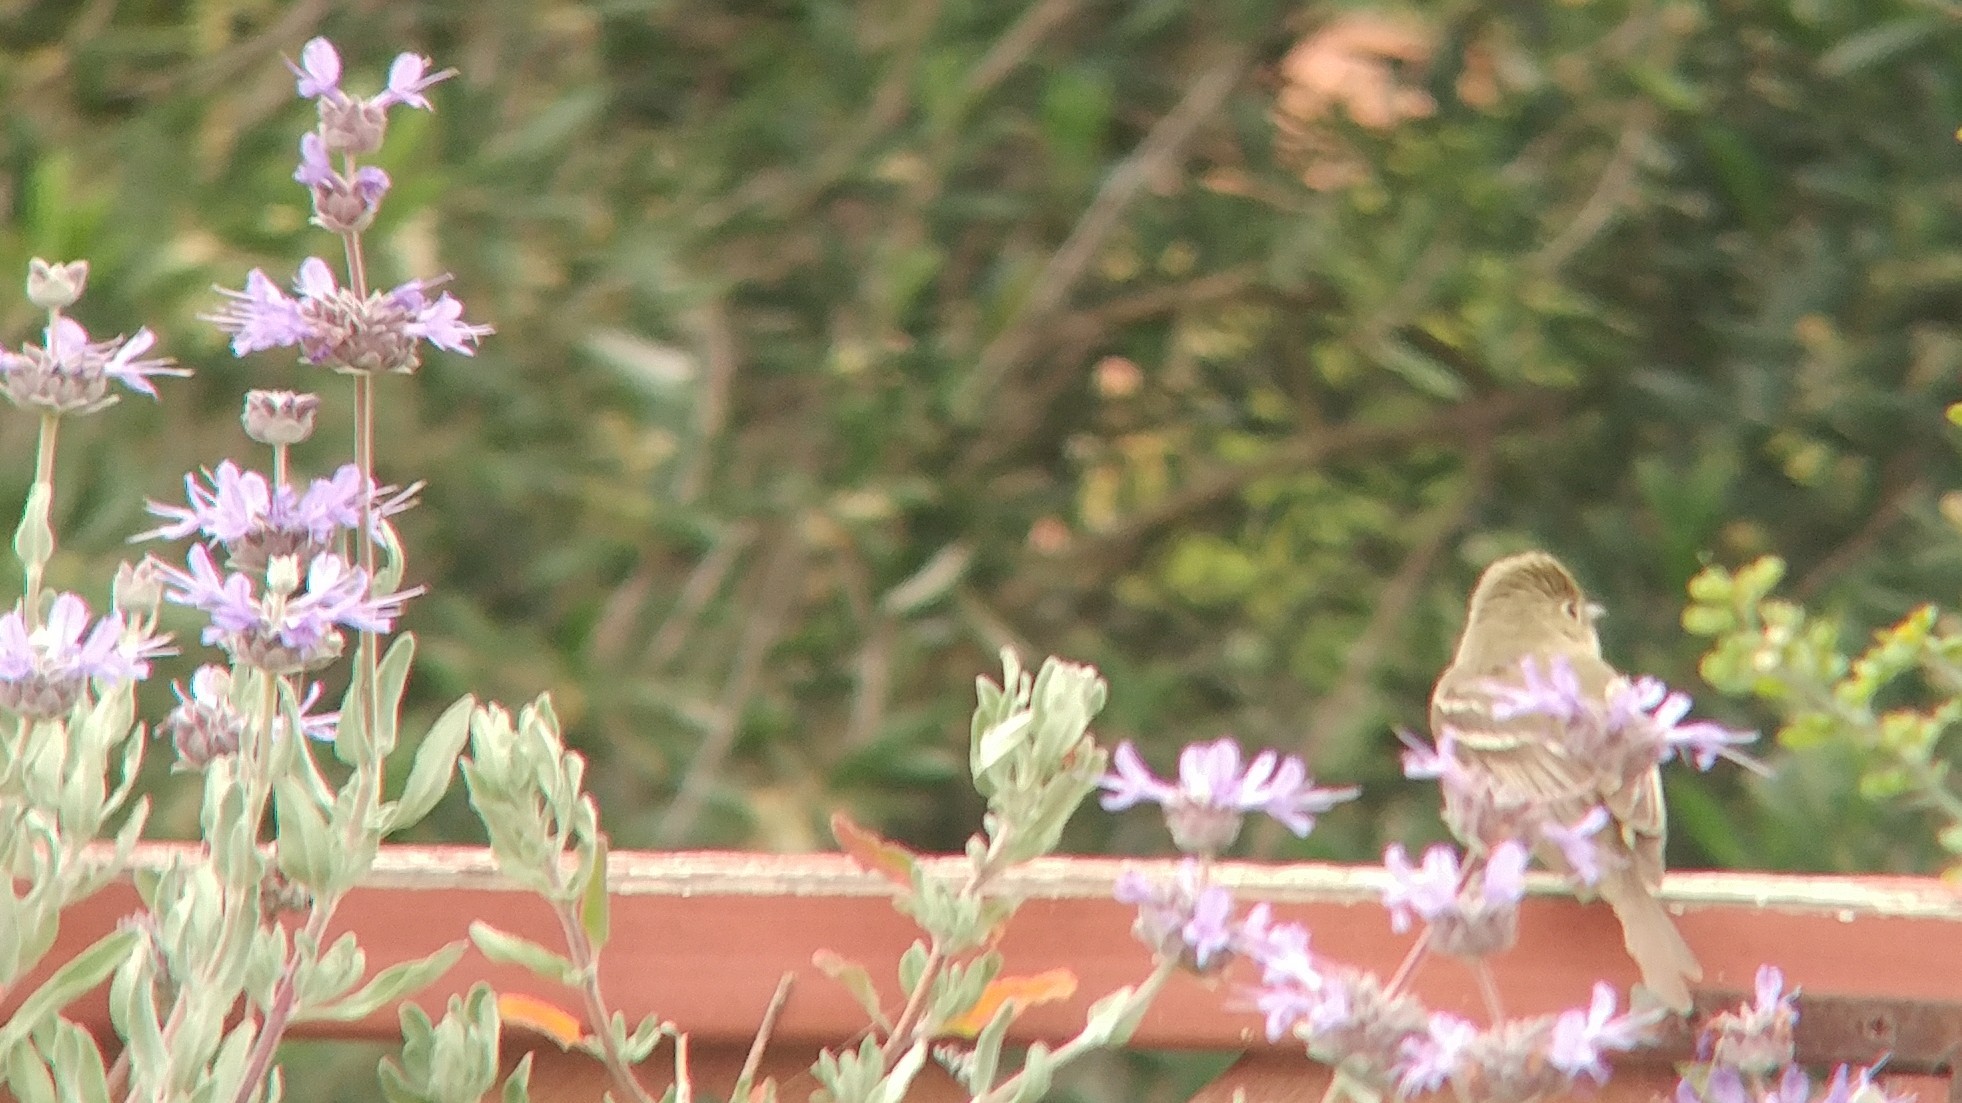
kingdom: Animalia
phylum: Chordata
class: Aves
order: Passeriformes
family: Tyrannidae
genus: Empidonax
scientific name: Empidonax difficilis
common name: Pacific-slope flycatcher
